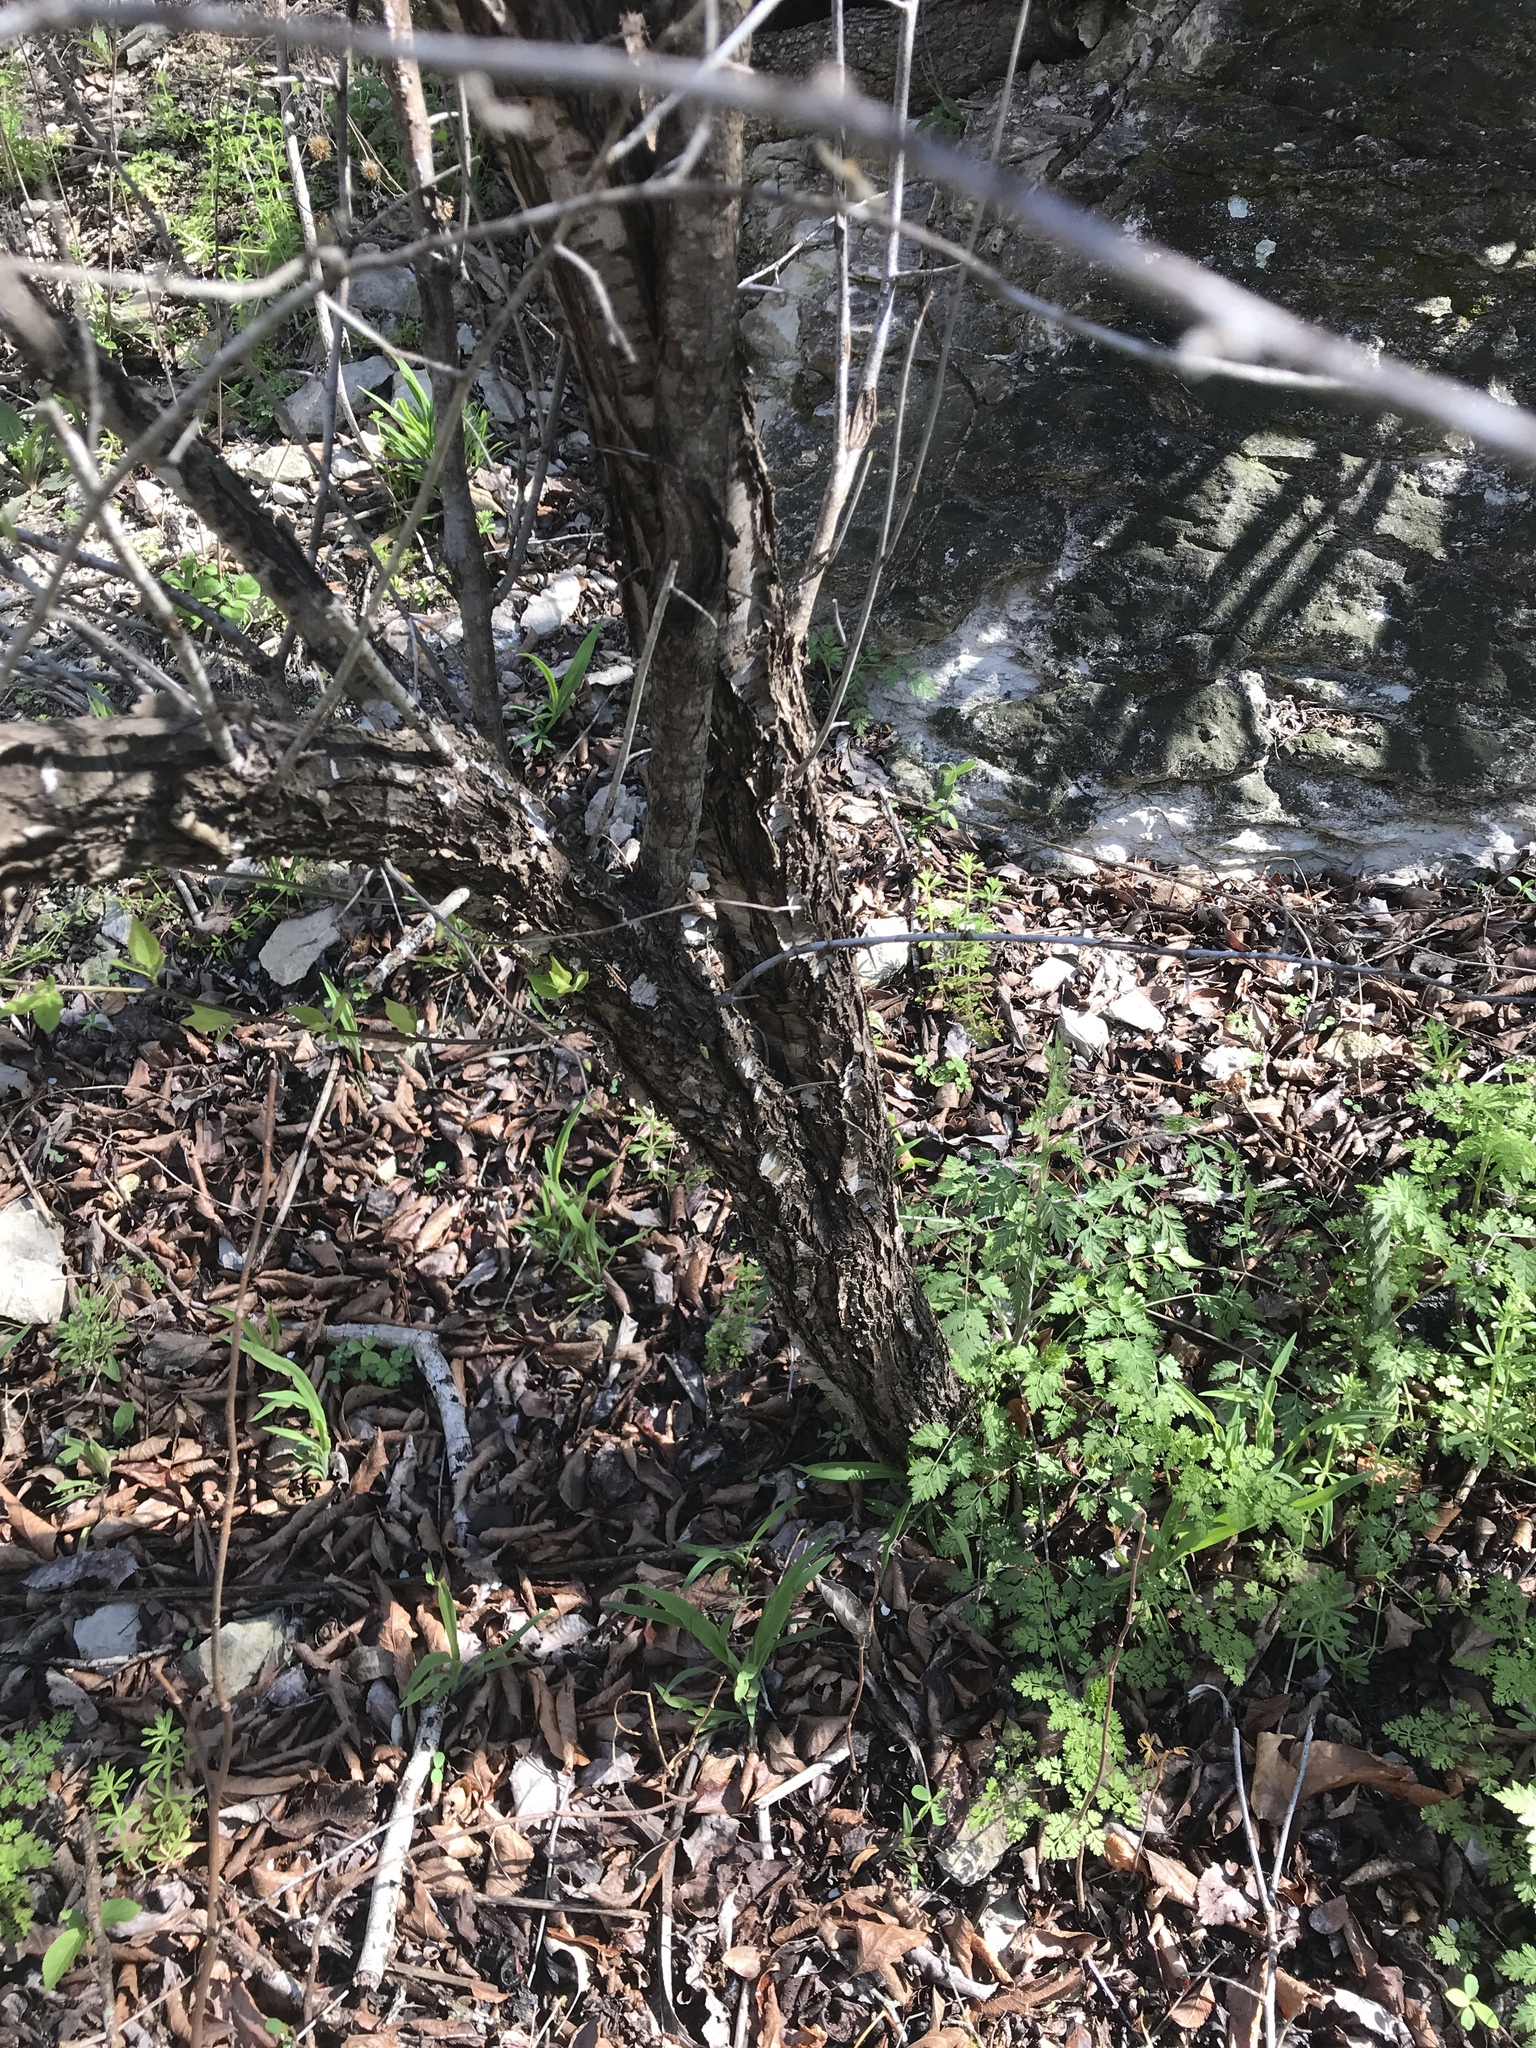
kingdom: Plantae
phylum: Tracheophyta
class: Magnoliopsida
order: Rosales
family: Rosaceae
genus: Prunus
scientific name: Prunus mexicana
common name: Mexican plum
